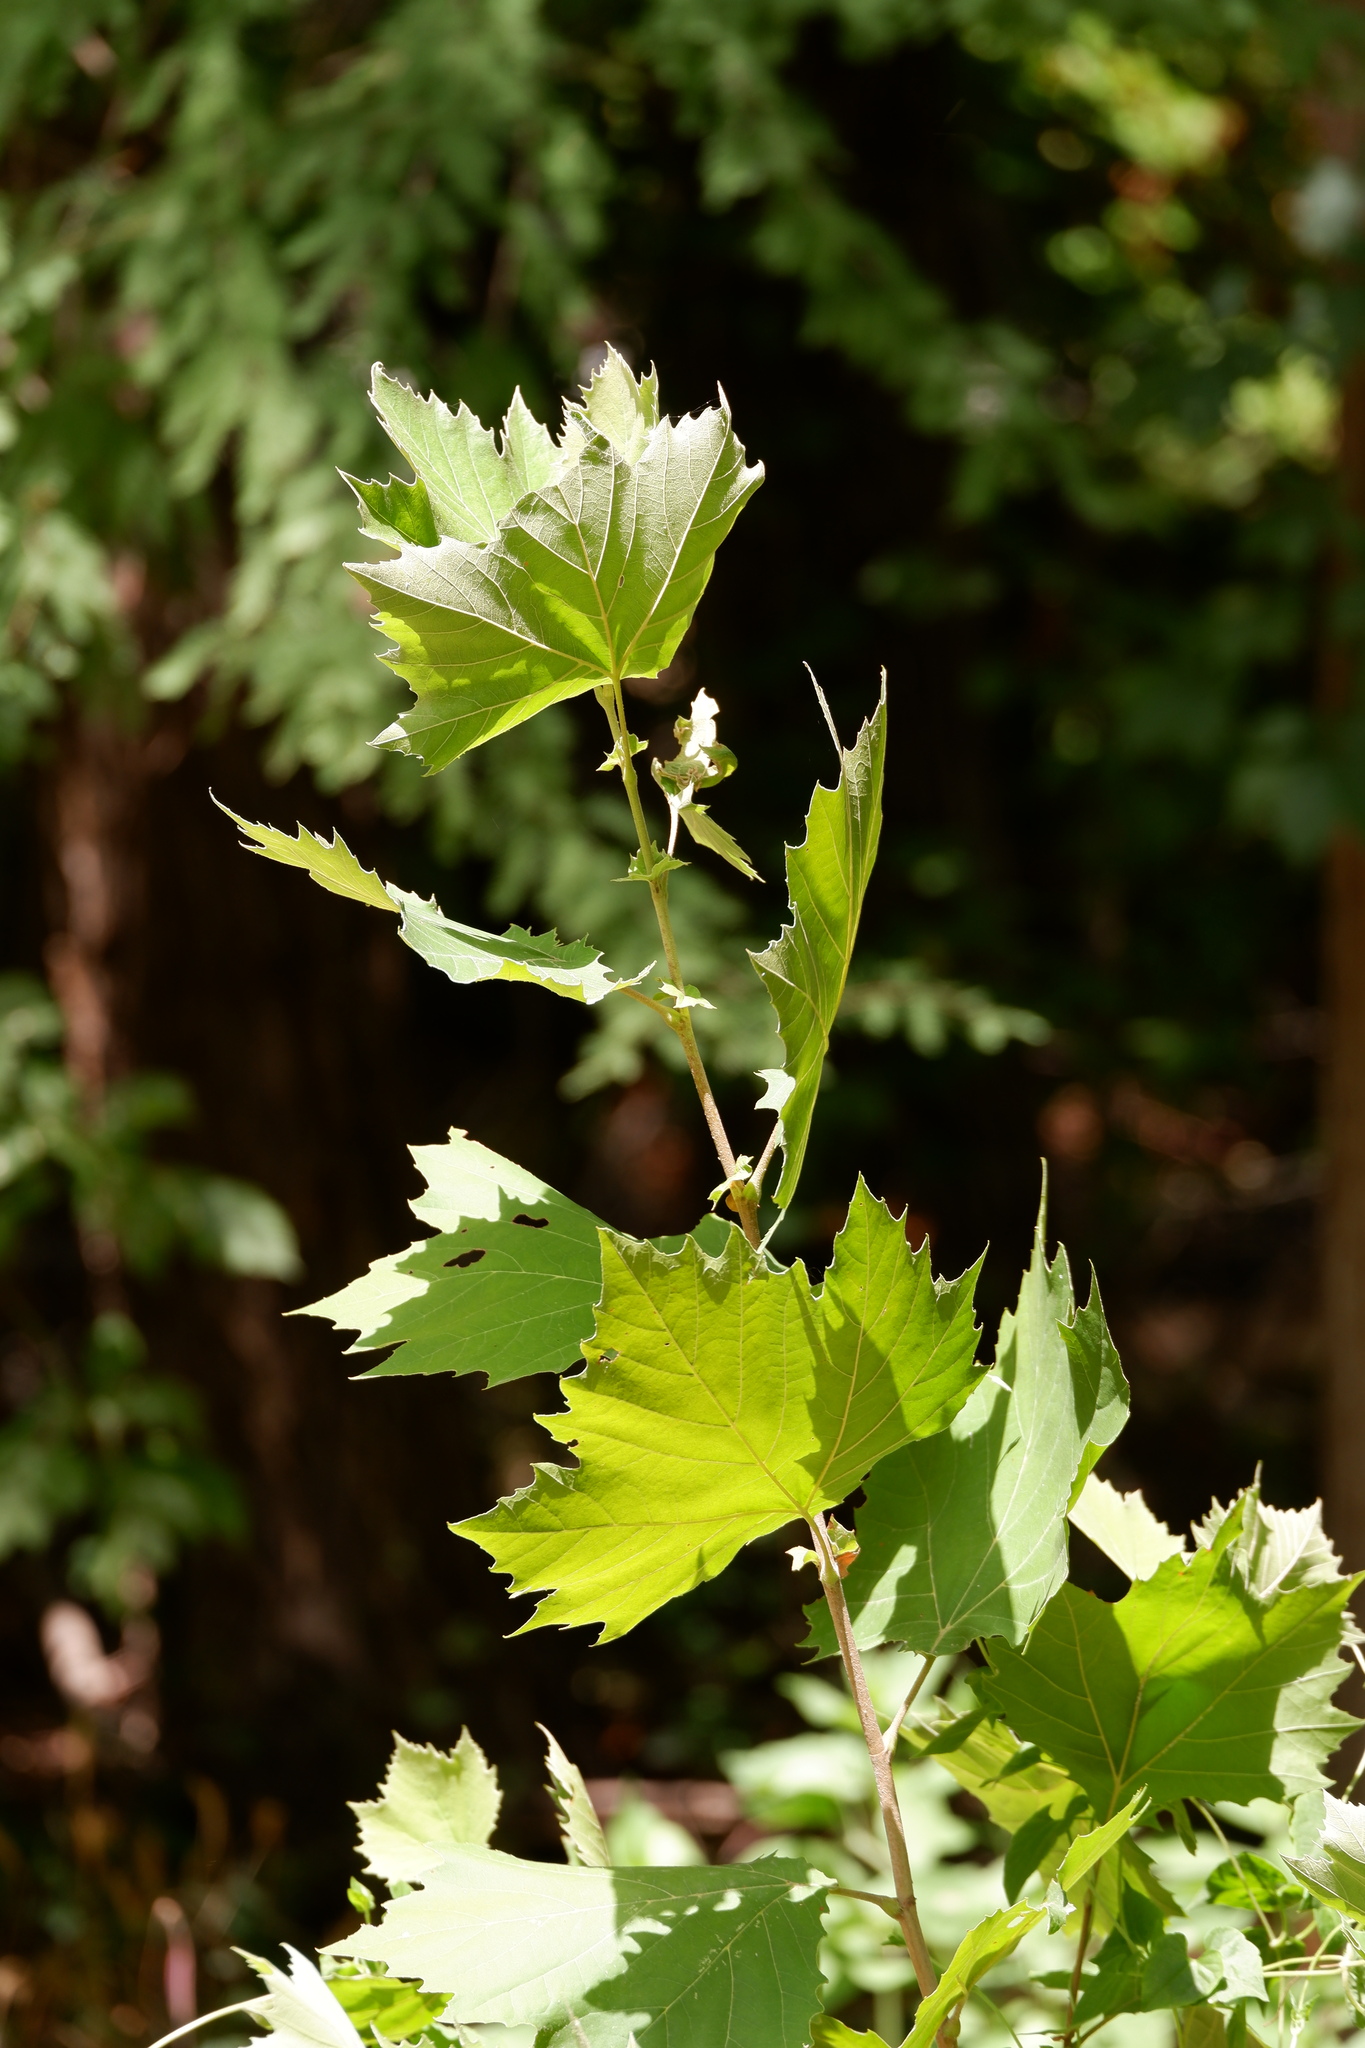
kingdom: Plantae
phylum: Tracheophyta
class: Magnoliopsida
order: Proteales
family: Platanaceae
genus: Platanus
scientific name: Platanus occidentalis
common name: American sycamore
